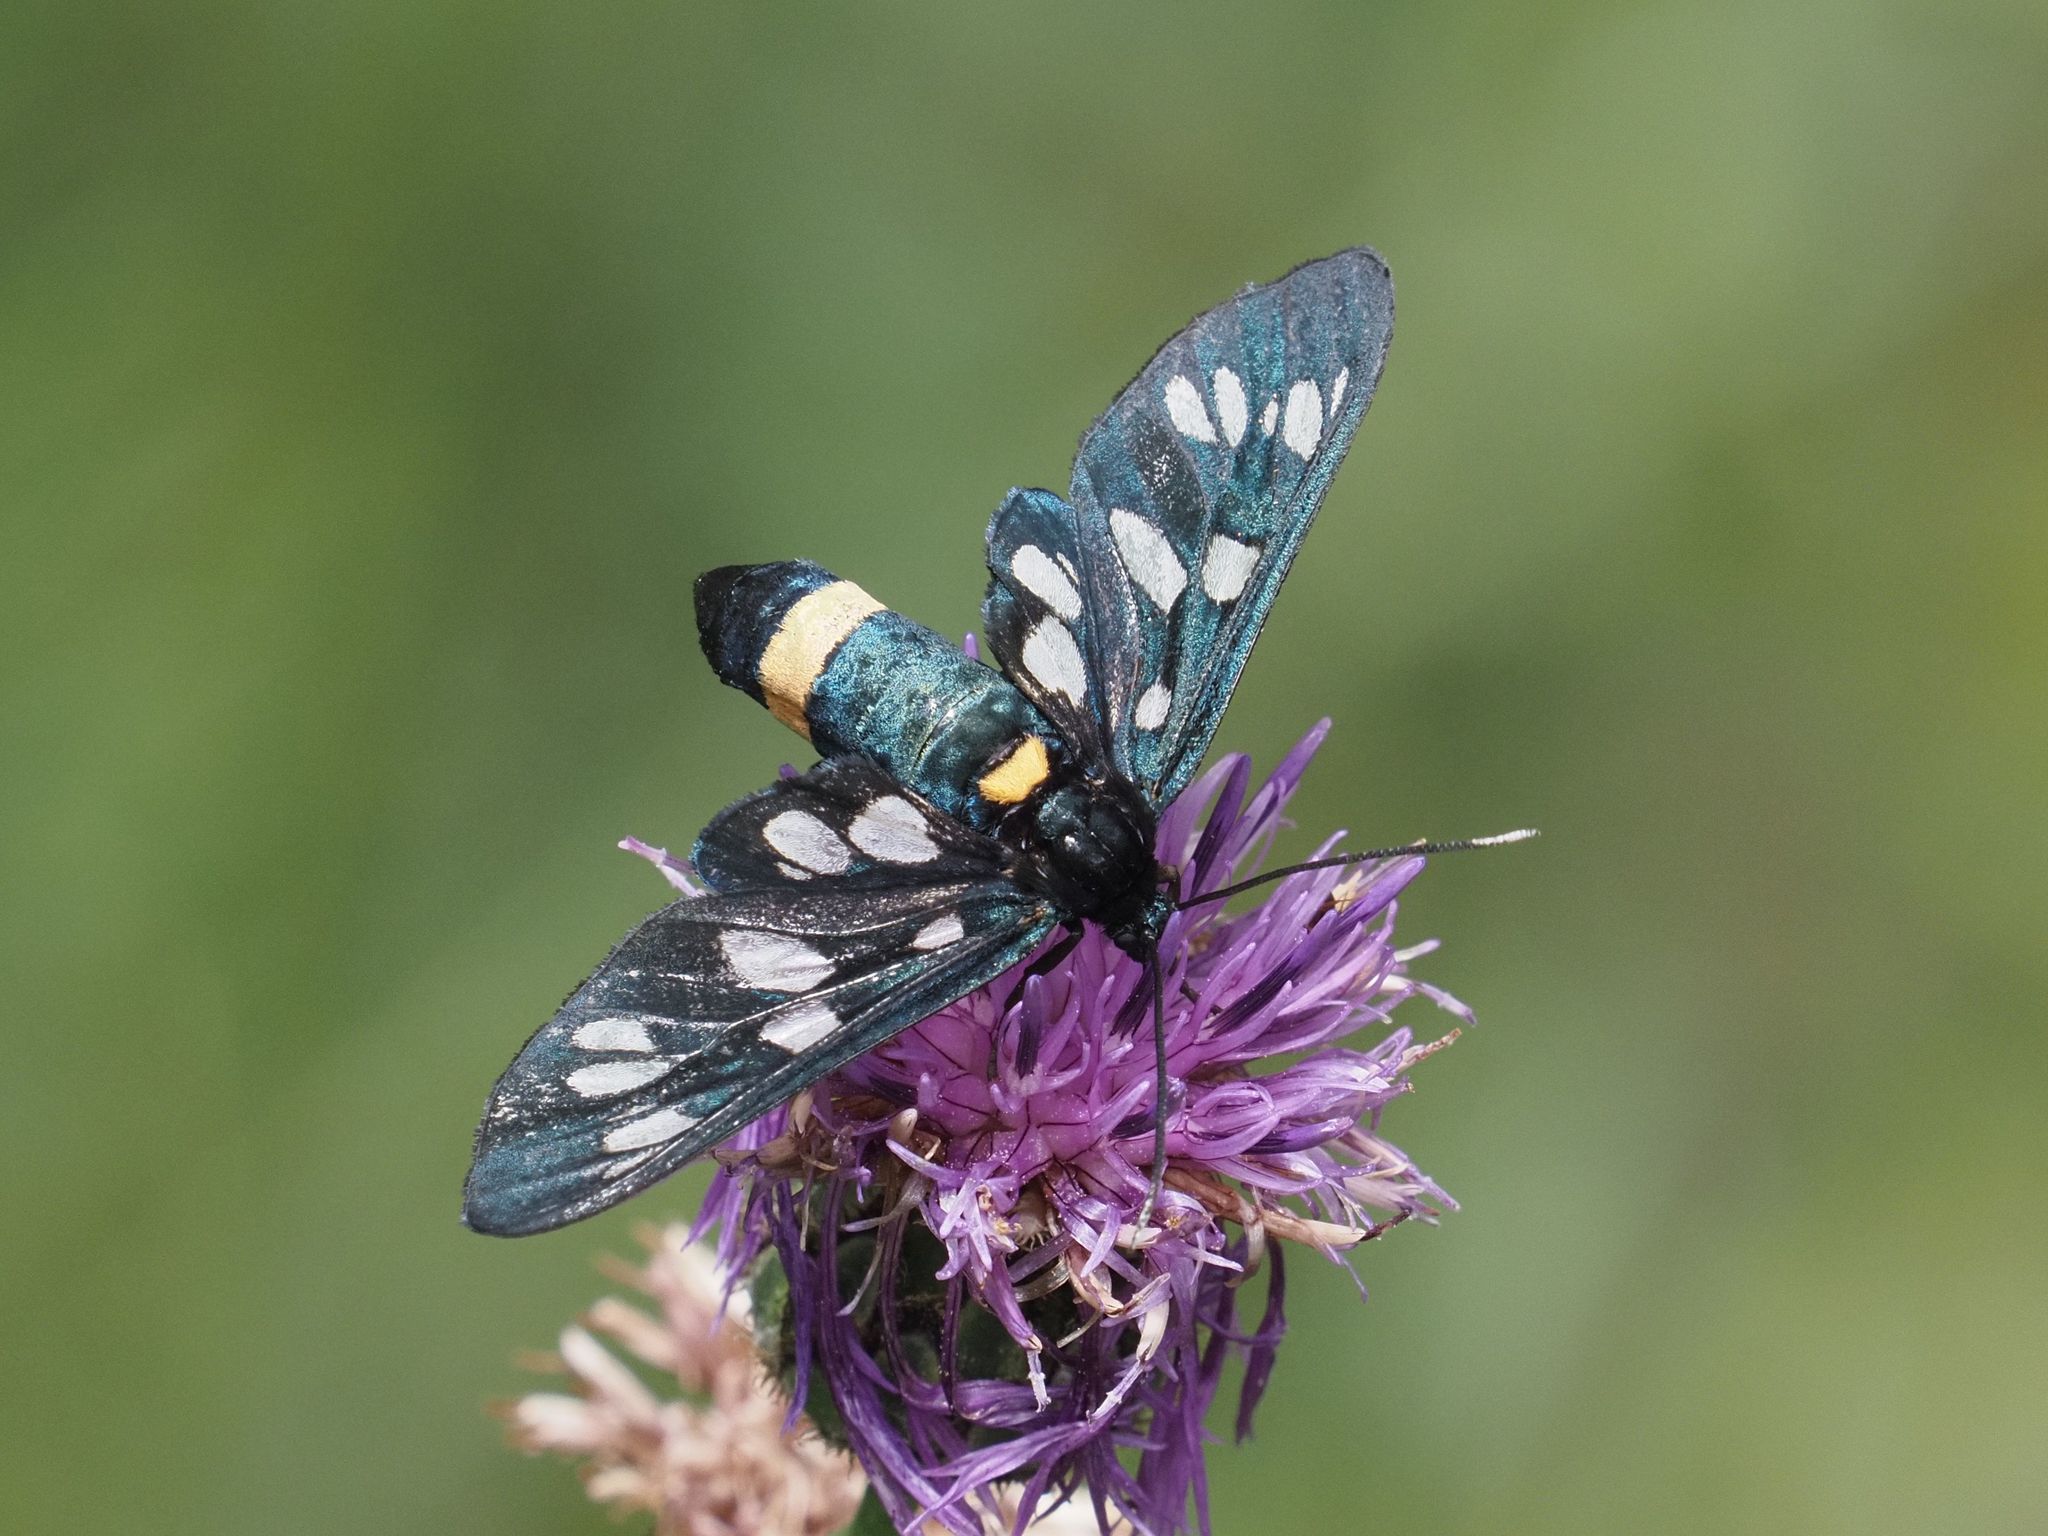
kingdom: Animalia
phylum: Arthropoda
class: Insecta
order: Lepidoptera
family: Erebidae
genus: Amata
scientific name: Amata phegea
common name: Nine-spotted
